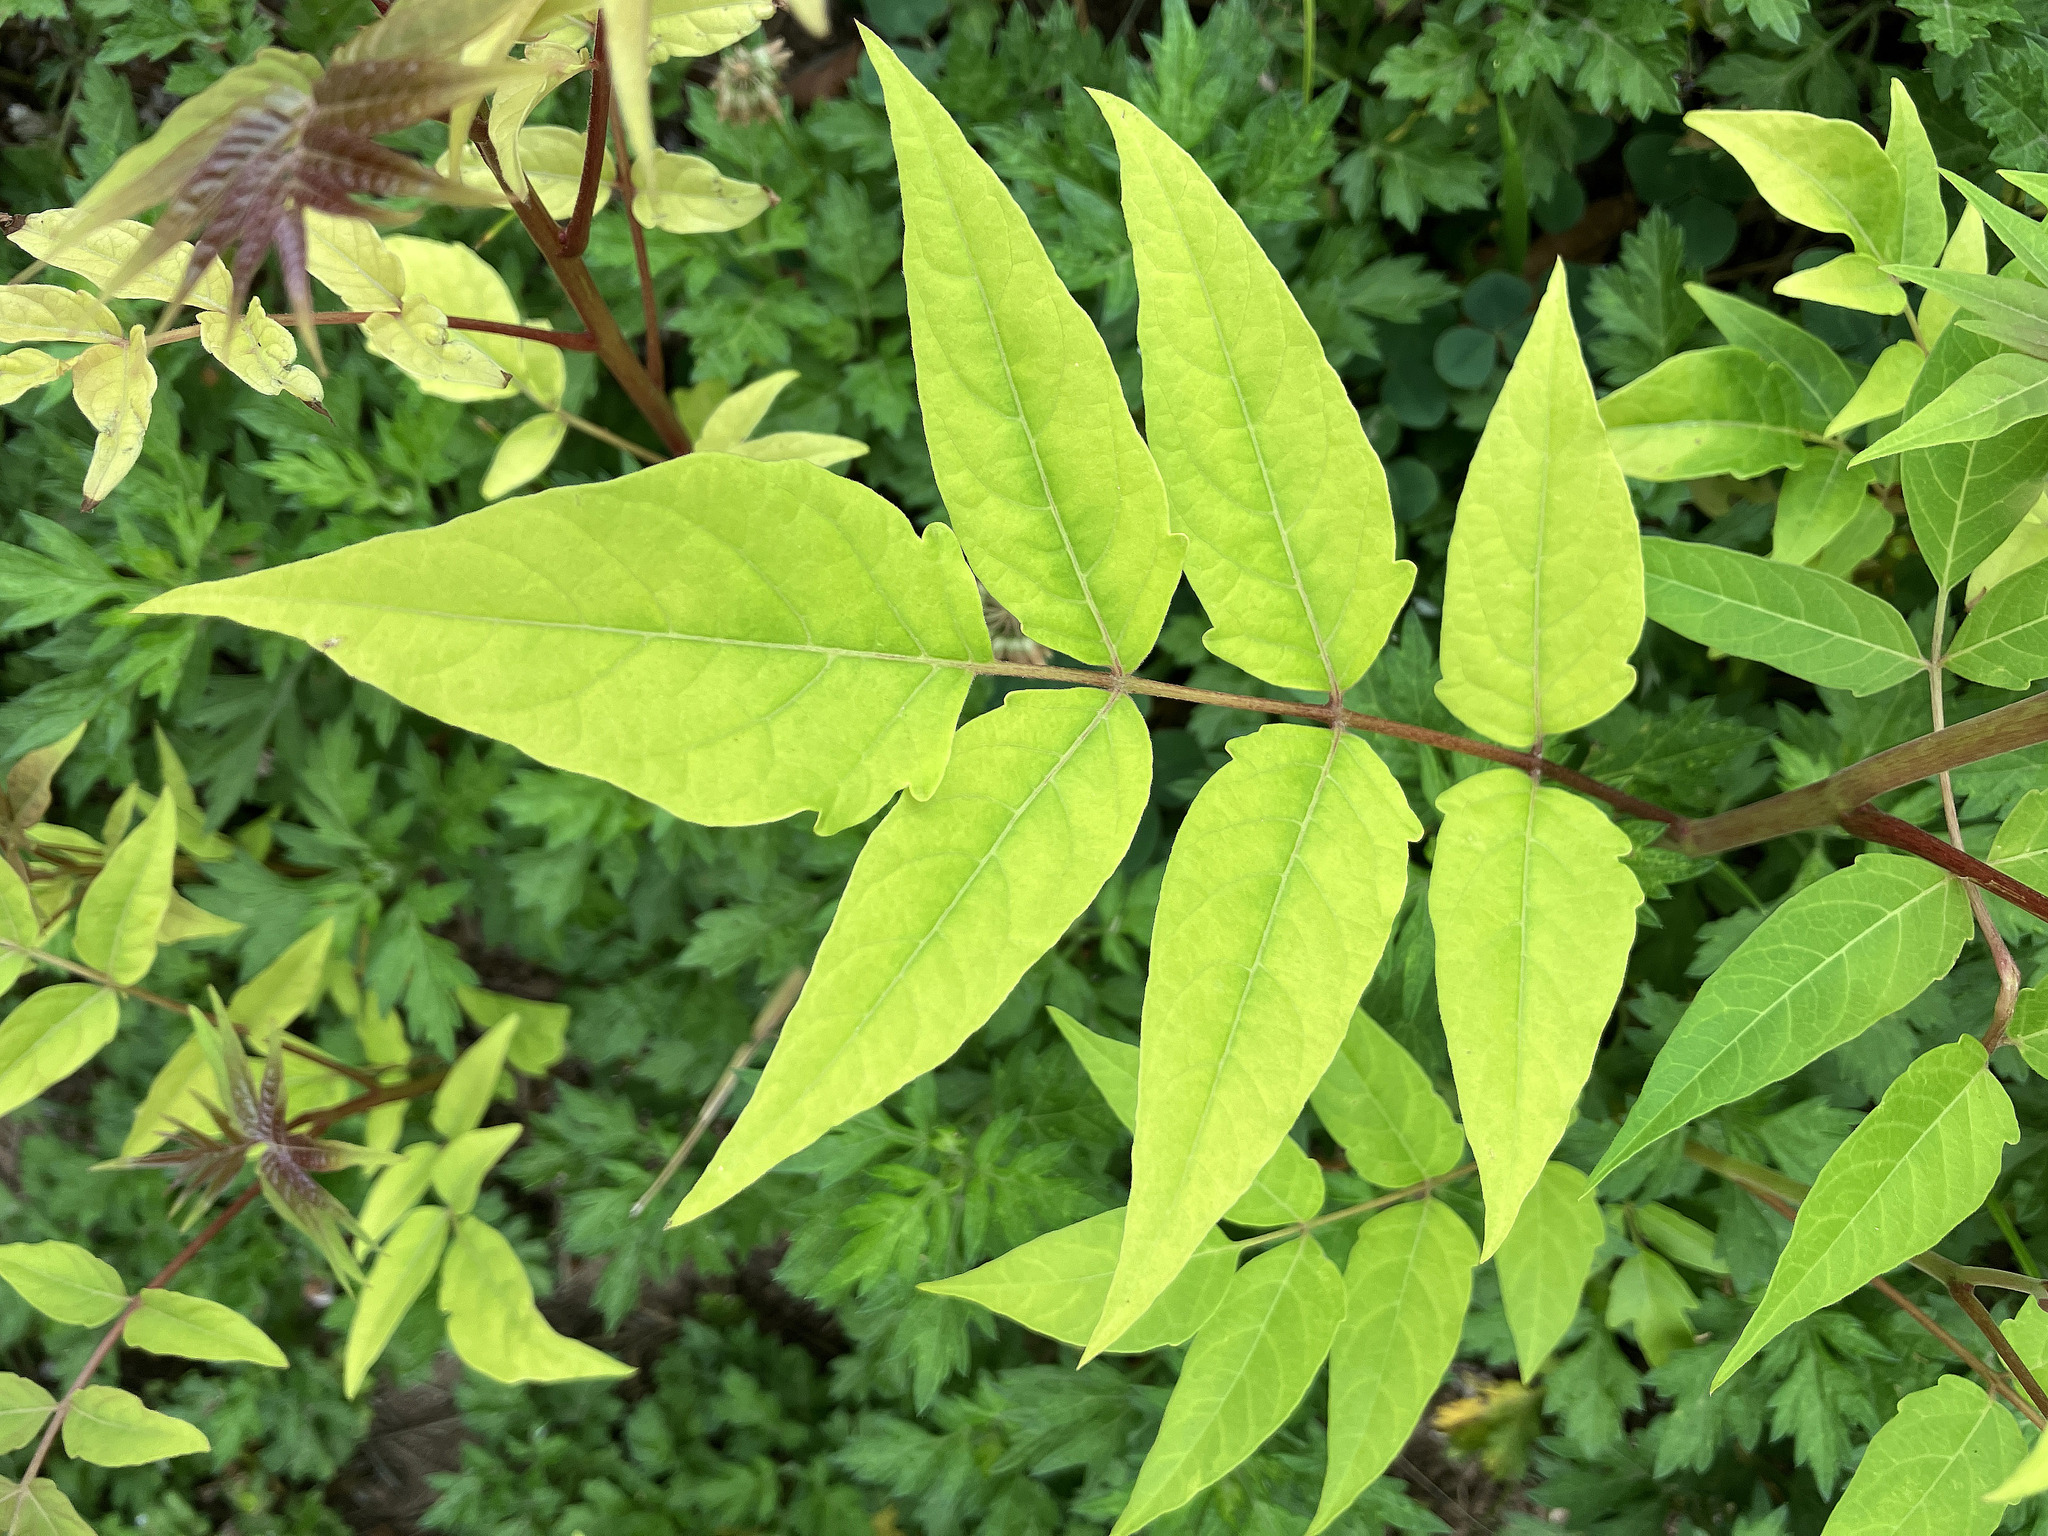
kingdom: Plantae
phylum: Tracheophyta
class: Magnoliopsida
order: Sapindales
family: Simaroubaceae
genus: Ailanthus
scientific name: Ailanthus altissima
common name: Tree-of-heaven
